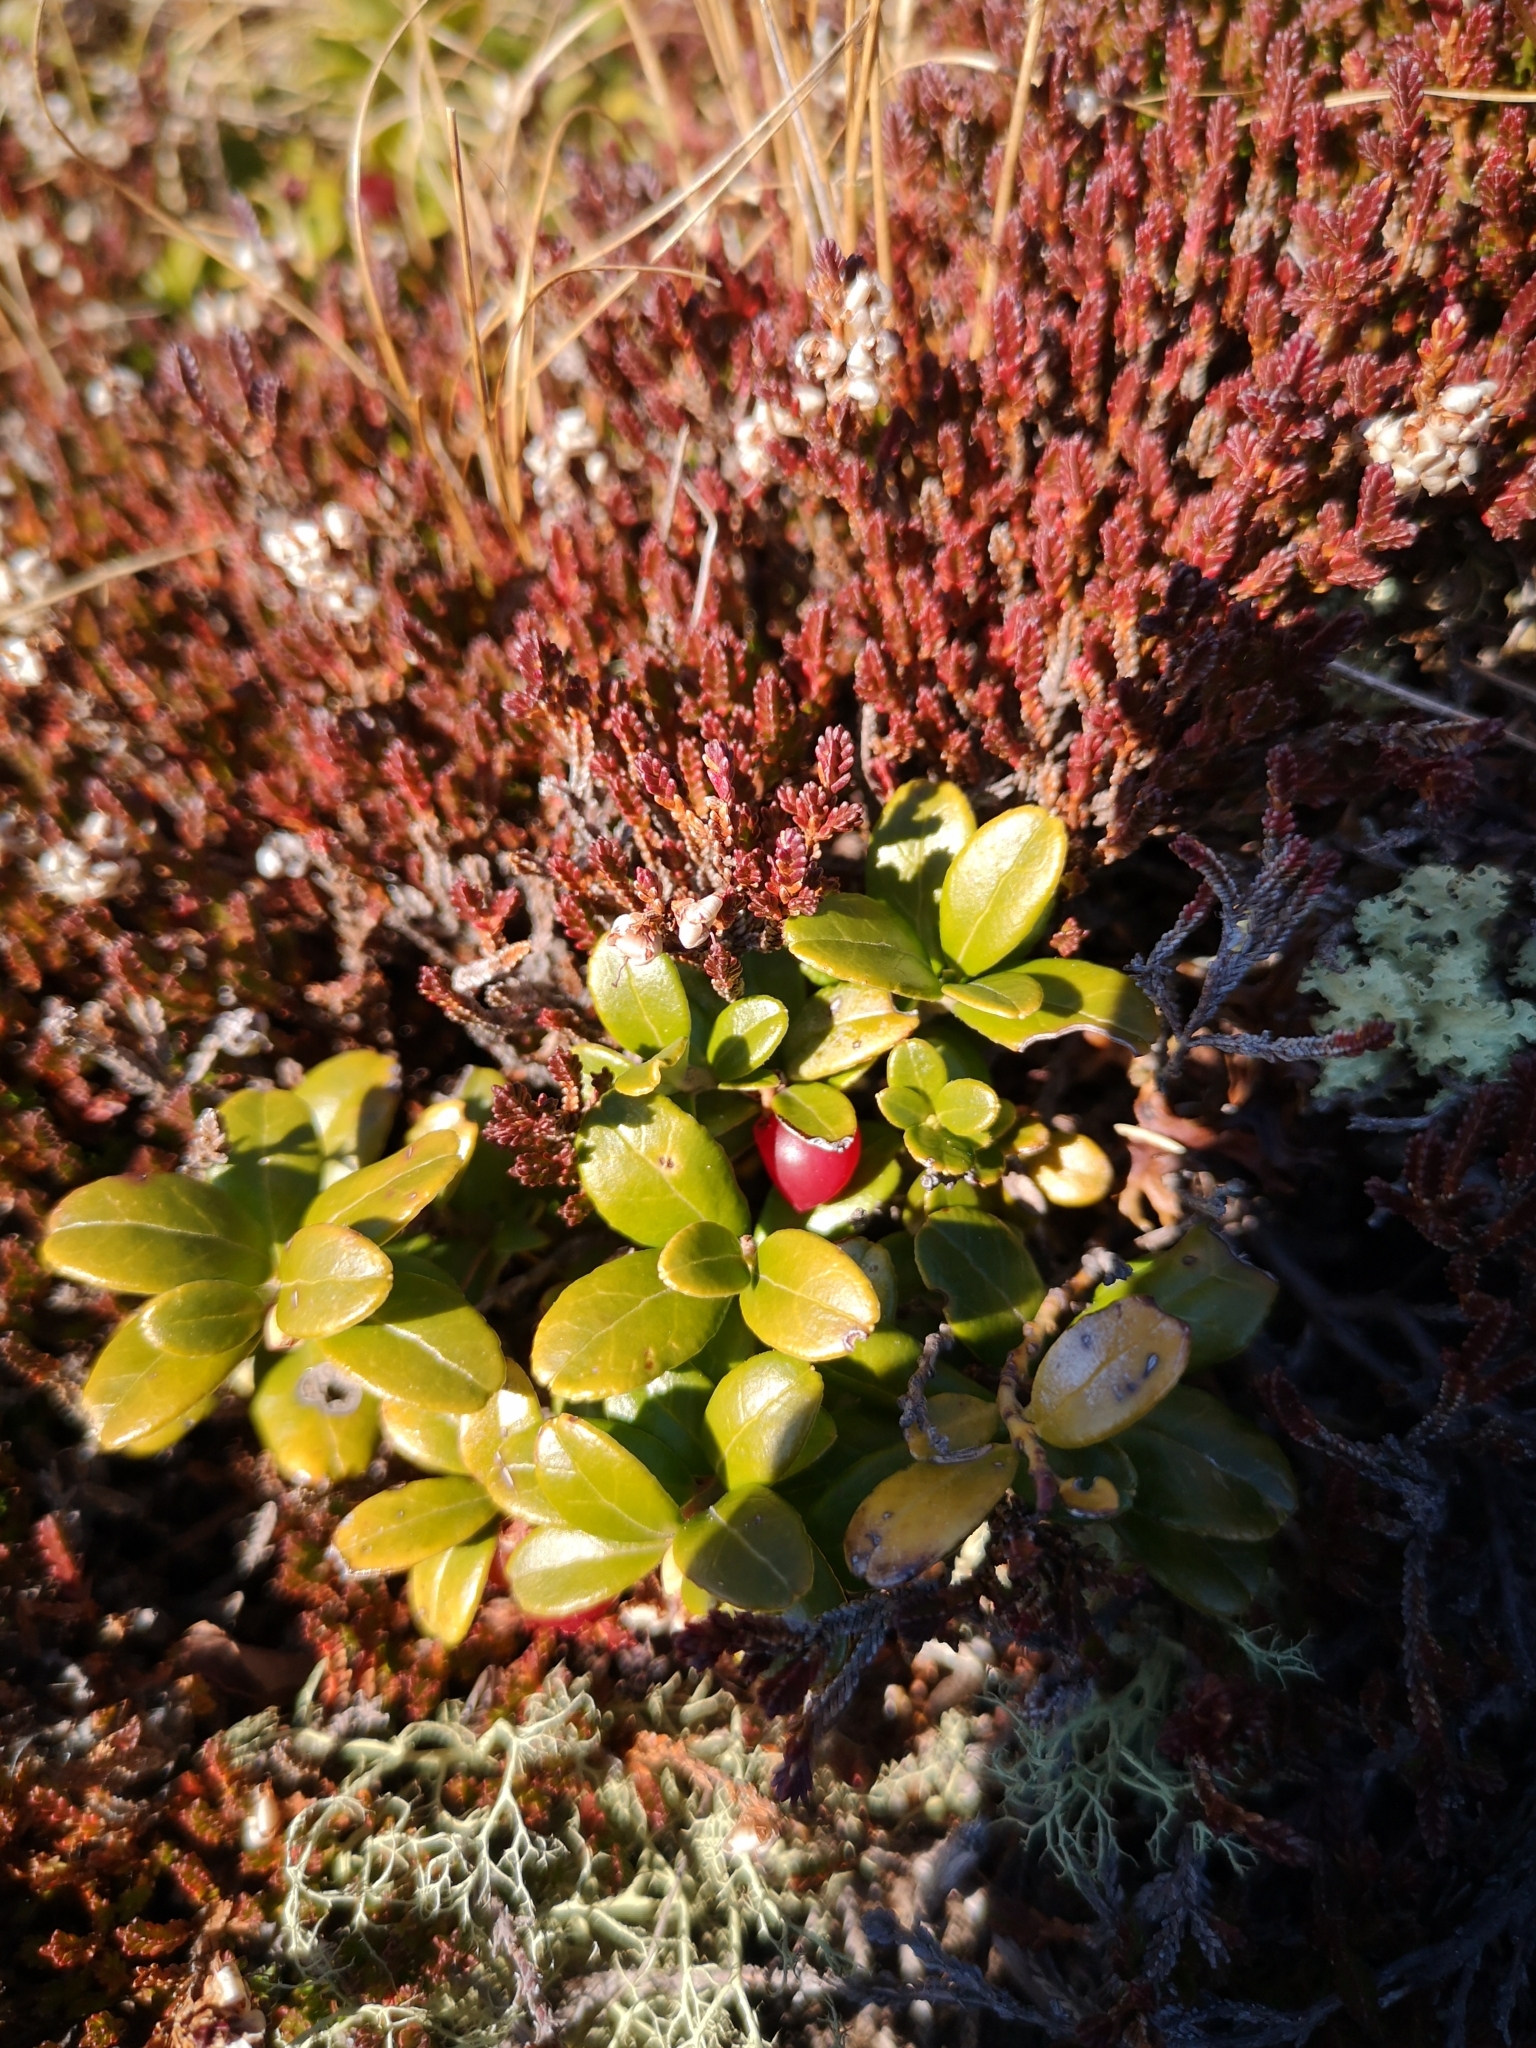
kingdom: Plantae
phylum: Tracheophyta
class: Magnoliopsida
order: Ericales
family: Ericaceae
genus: Vaccinium
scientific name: Vaccinium vitis-idaea
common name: Cowberry
